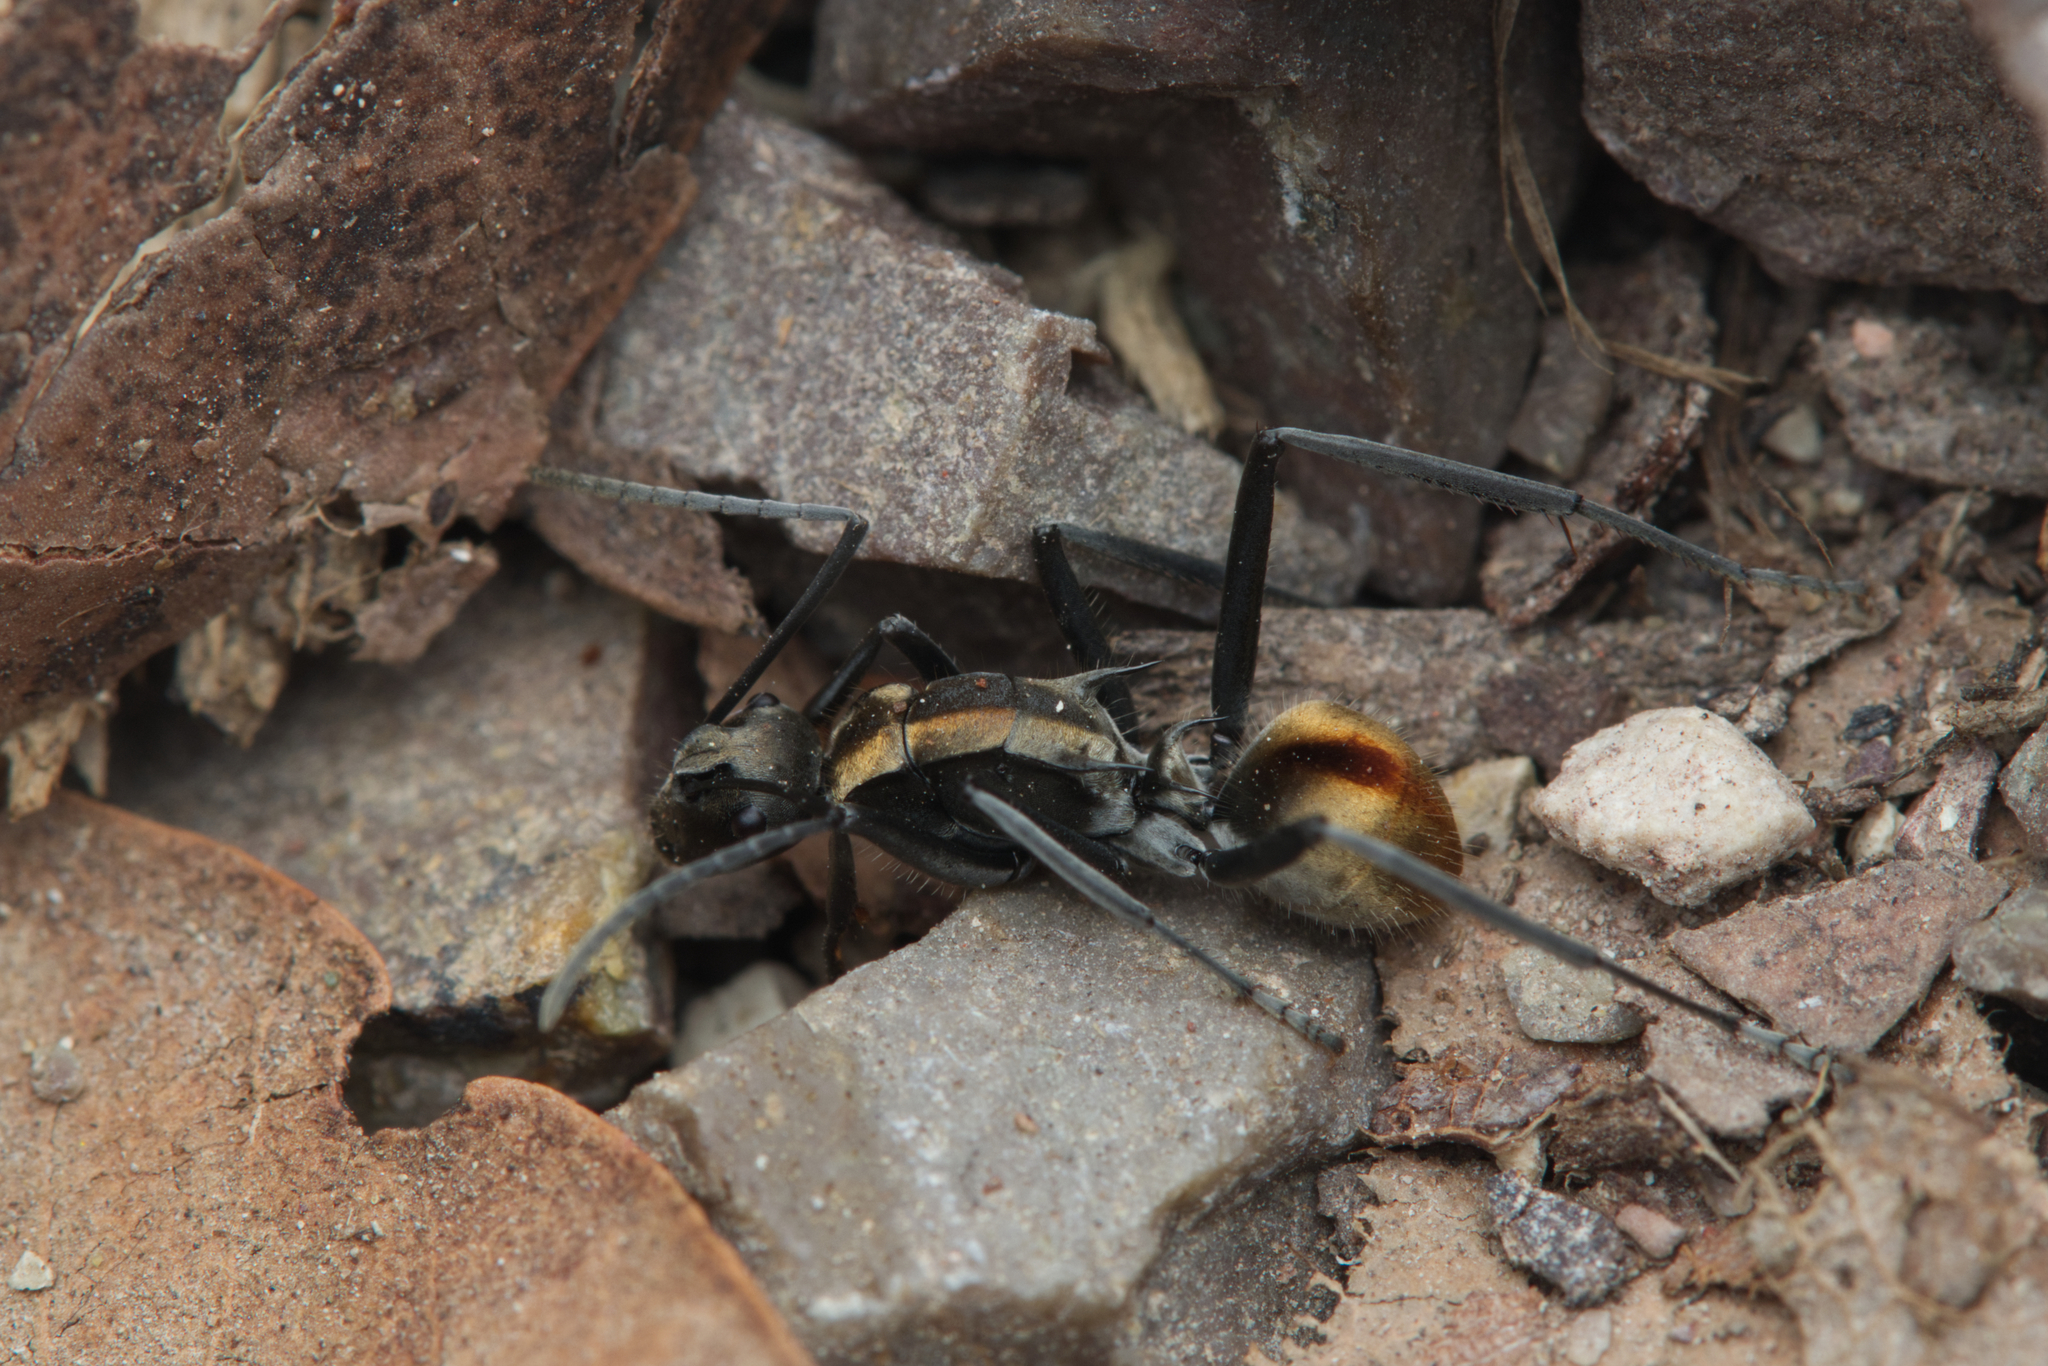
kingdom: Animalia
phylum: Arthropoda
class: Insecta
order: Hymenoptera
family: Formicidae
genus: Polyrhachis
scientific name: Polyrhachis
